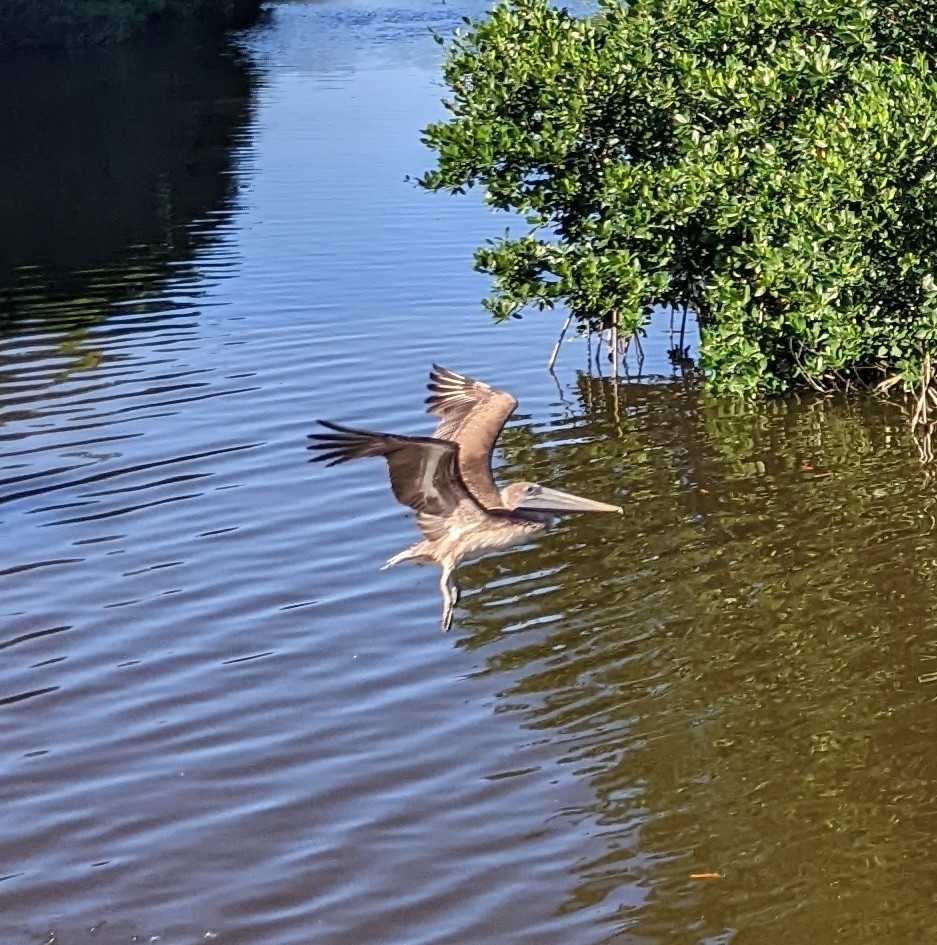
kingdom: Animalia
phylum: Chordata
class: Aves
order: Pelecaniformes
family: Pelecanidae
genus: Pelecanus
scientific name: Pelecanus occidentalis
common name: Brown pelican
